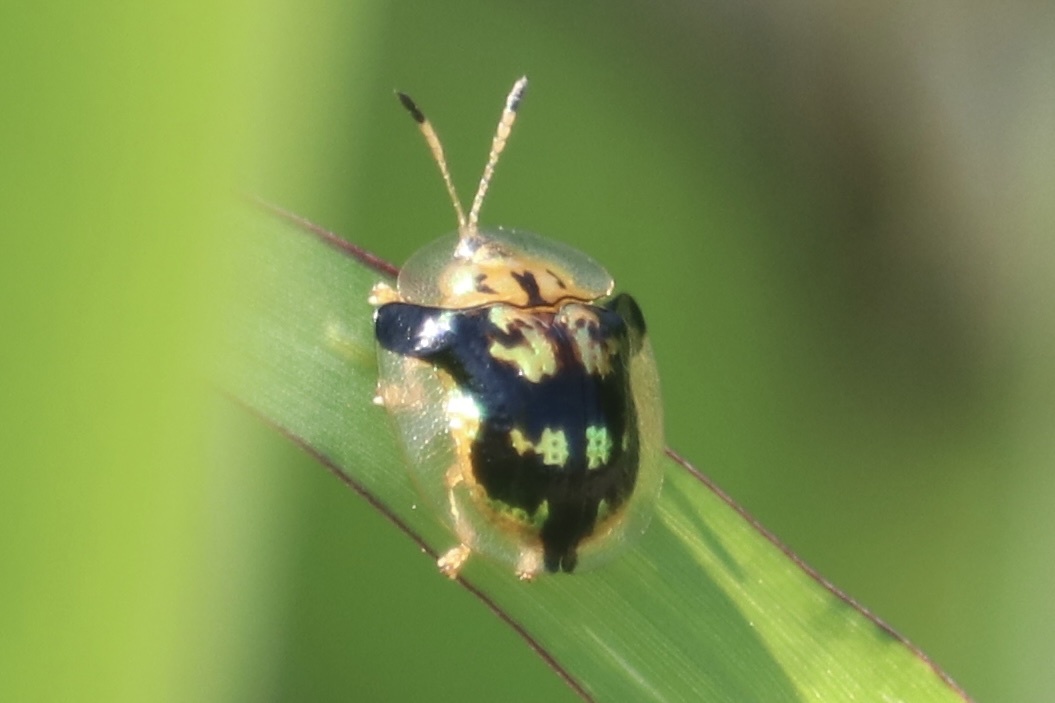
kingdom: Animalia
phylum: Arthropoda
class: Insecta
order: Coleoptera
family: Chrysomelidae
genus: Deloyala
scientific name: Deloyala guttata
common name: Mottled tortoise beetle
